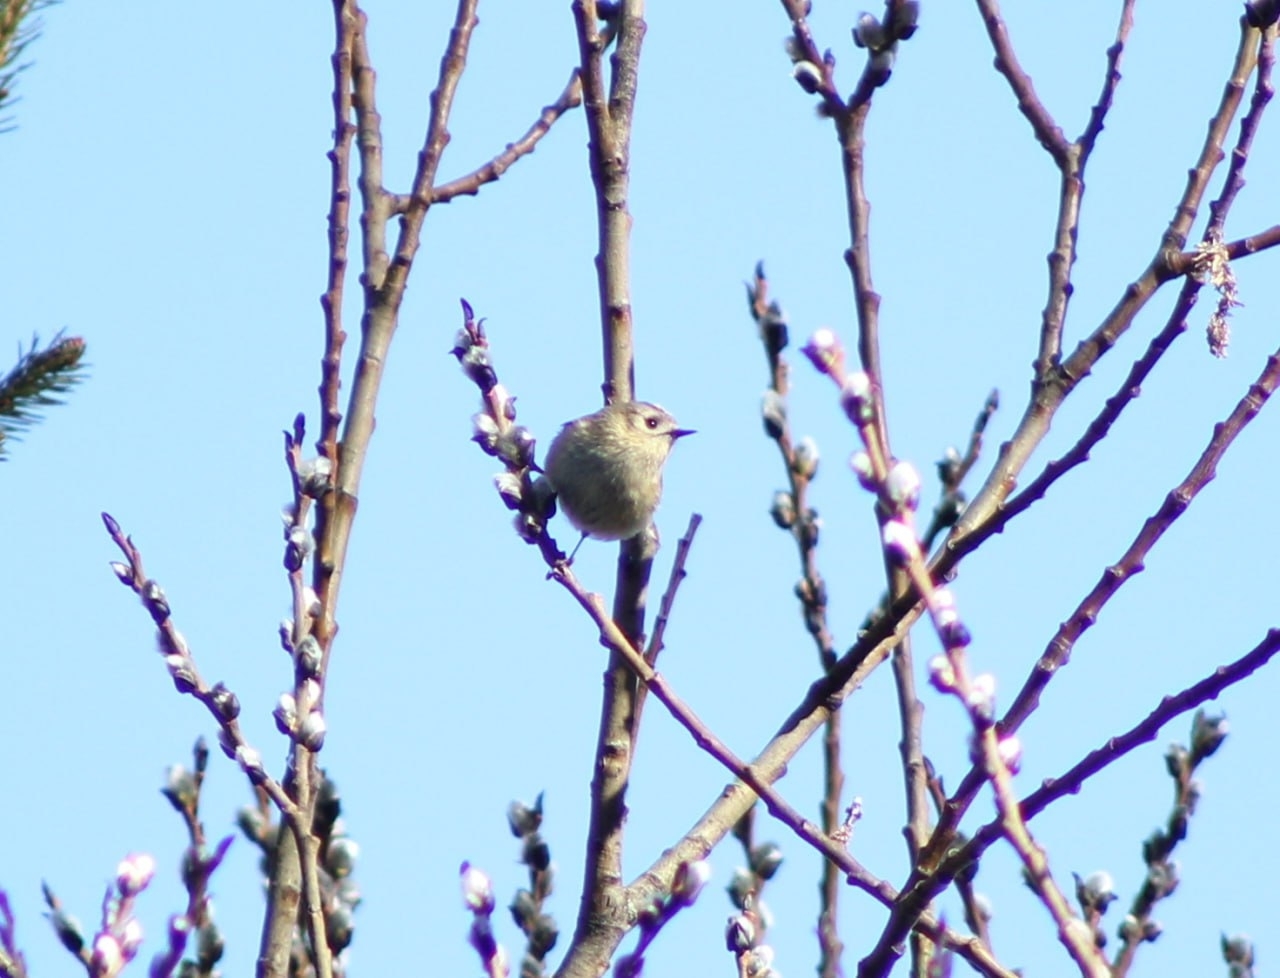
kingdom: Animalia
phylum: Chordata
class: Aves
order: Passeriformes
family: Regulidae
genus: Regulus
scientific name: Regulus regulus
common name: Goldcrest
